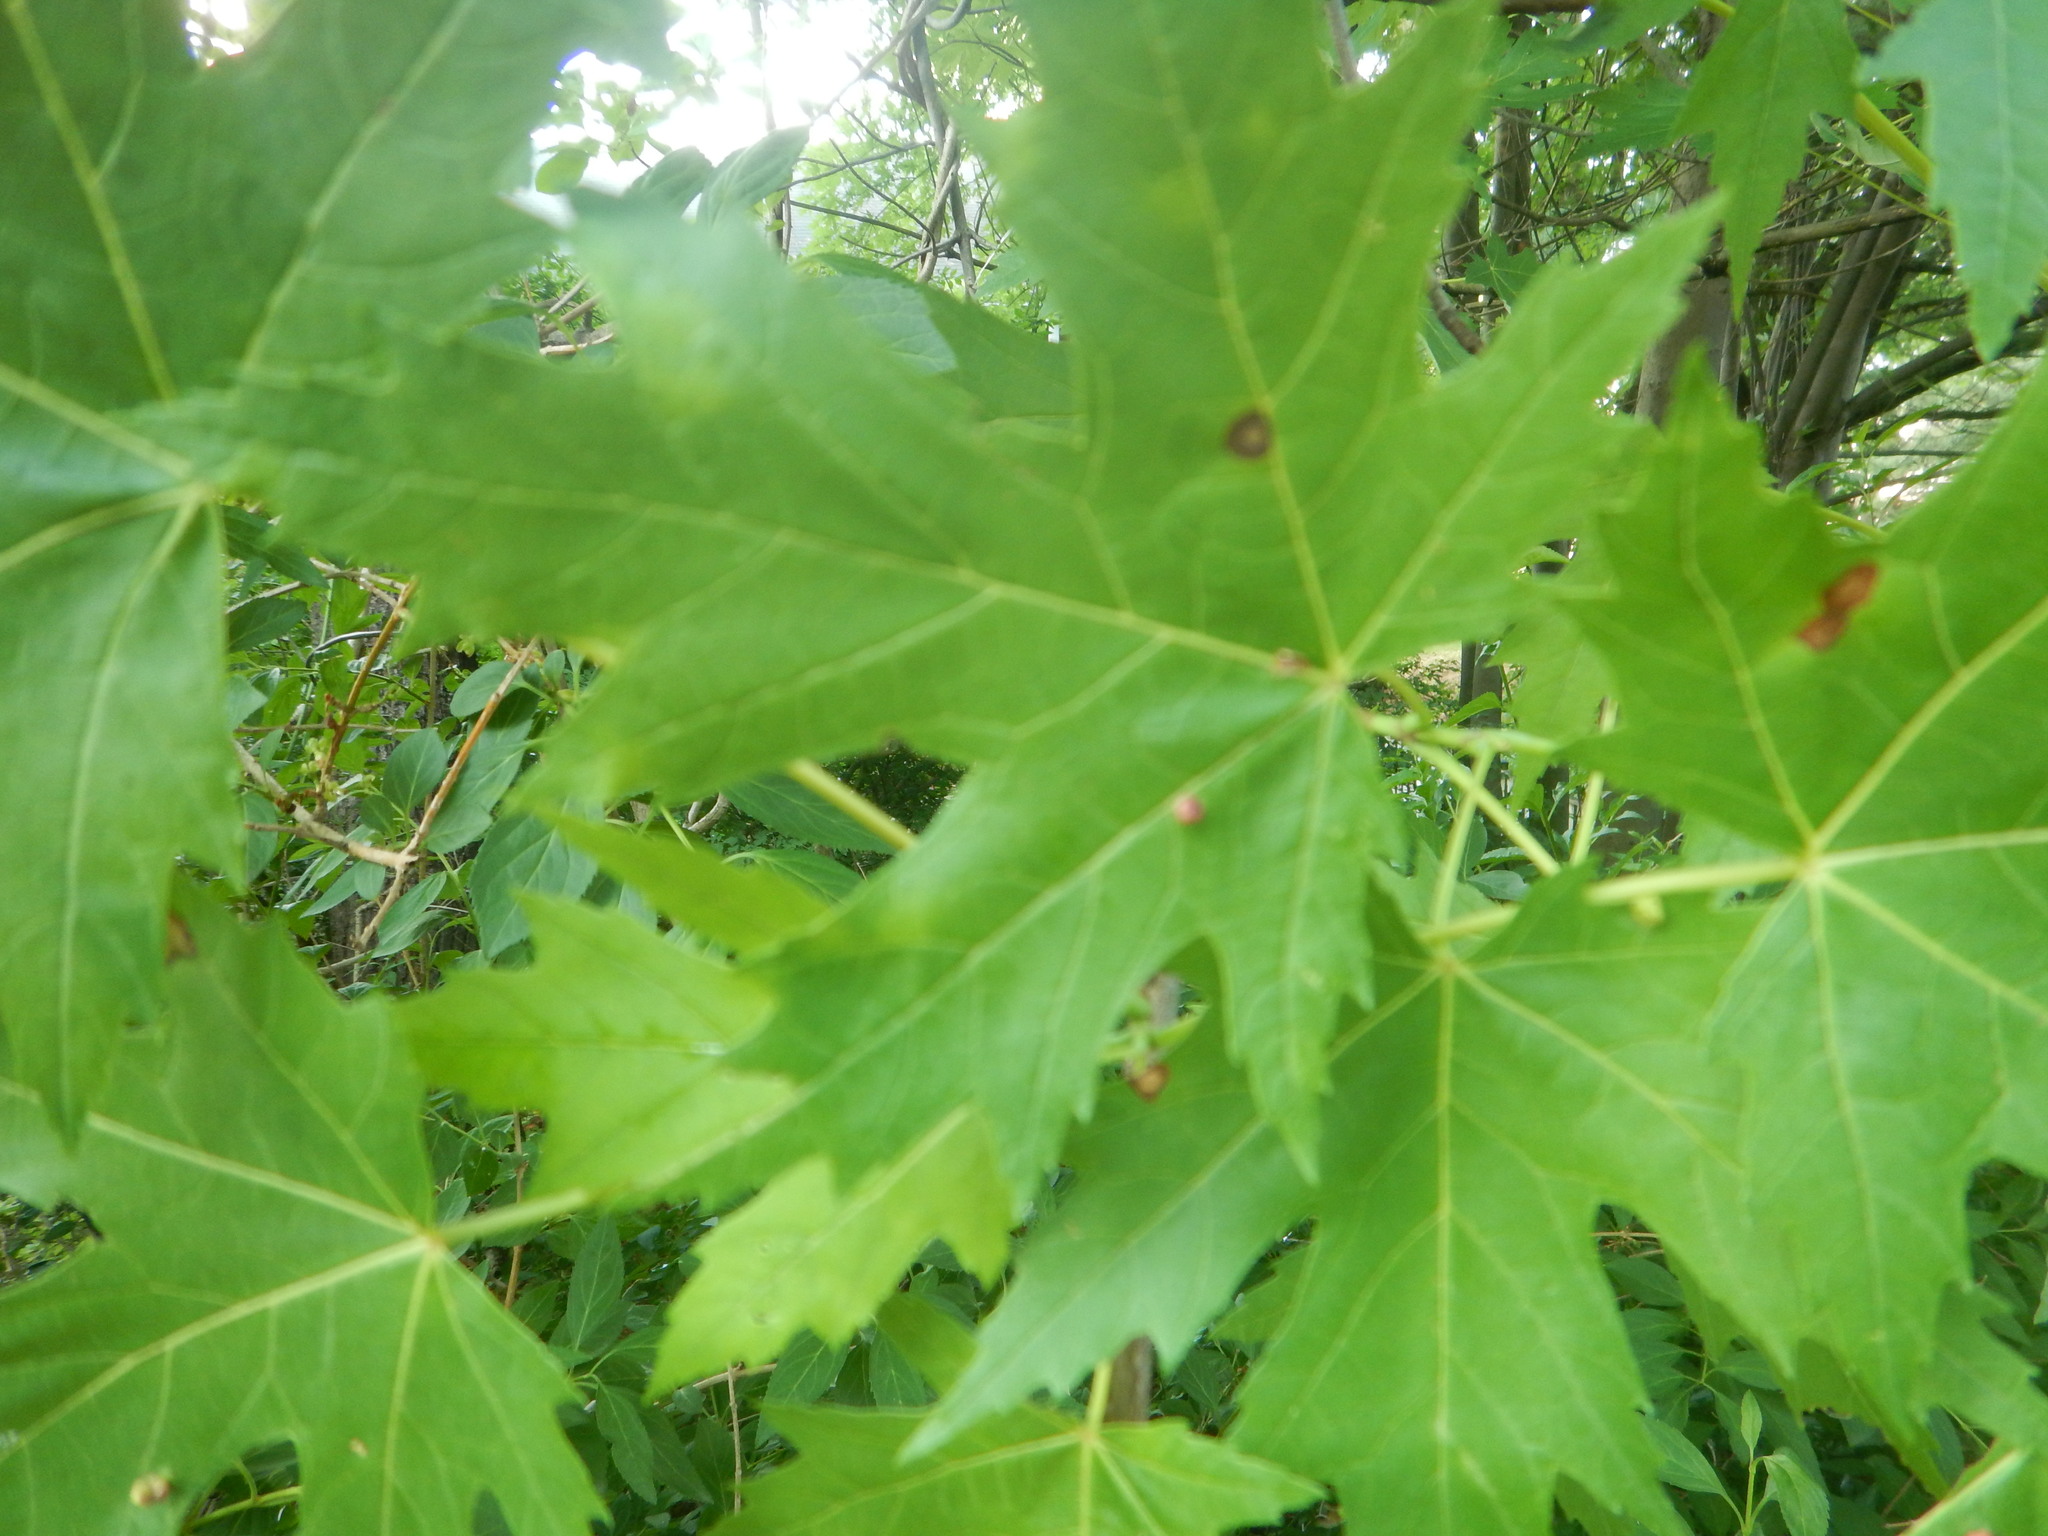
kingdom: Animalia
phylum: Arthropoda
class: Arachnida
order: Trombidiformes
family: Eriophyidae
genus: Vasates
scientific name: Vasates quadripedes
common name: Maple bladder gall mite
